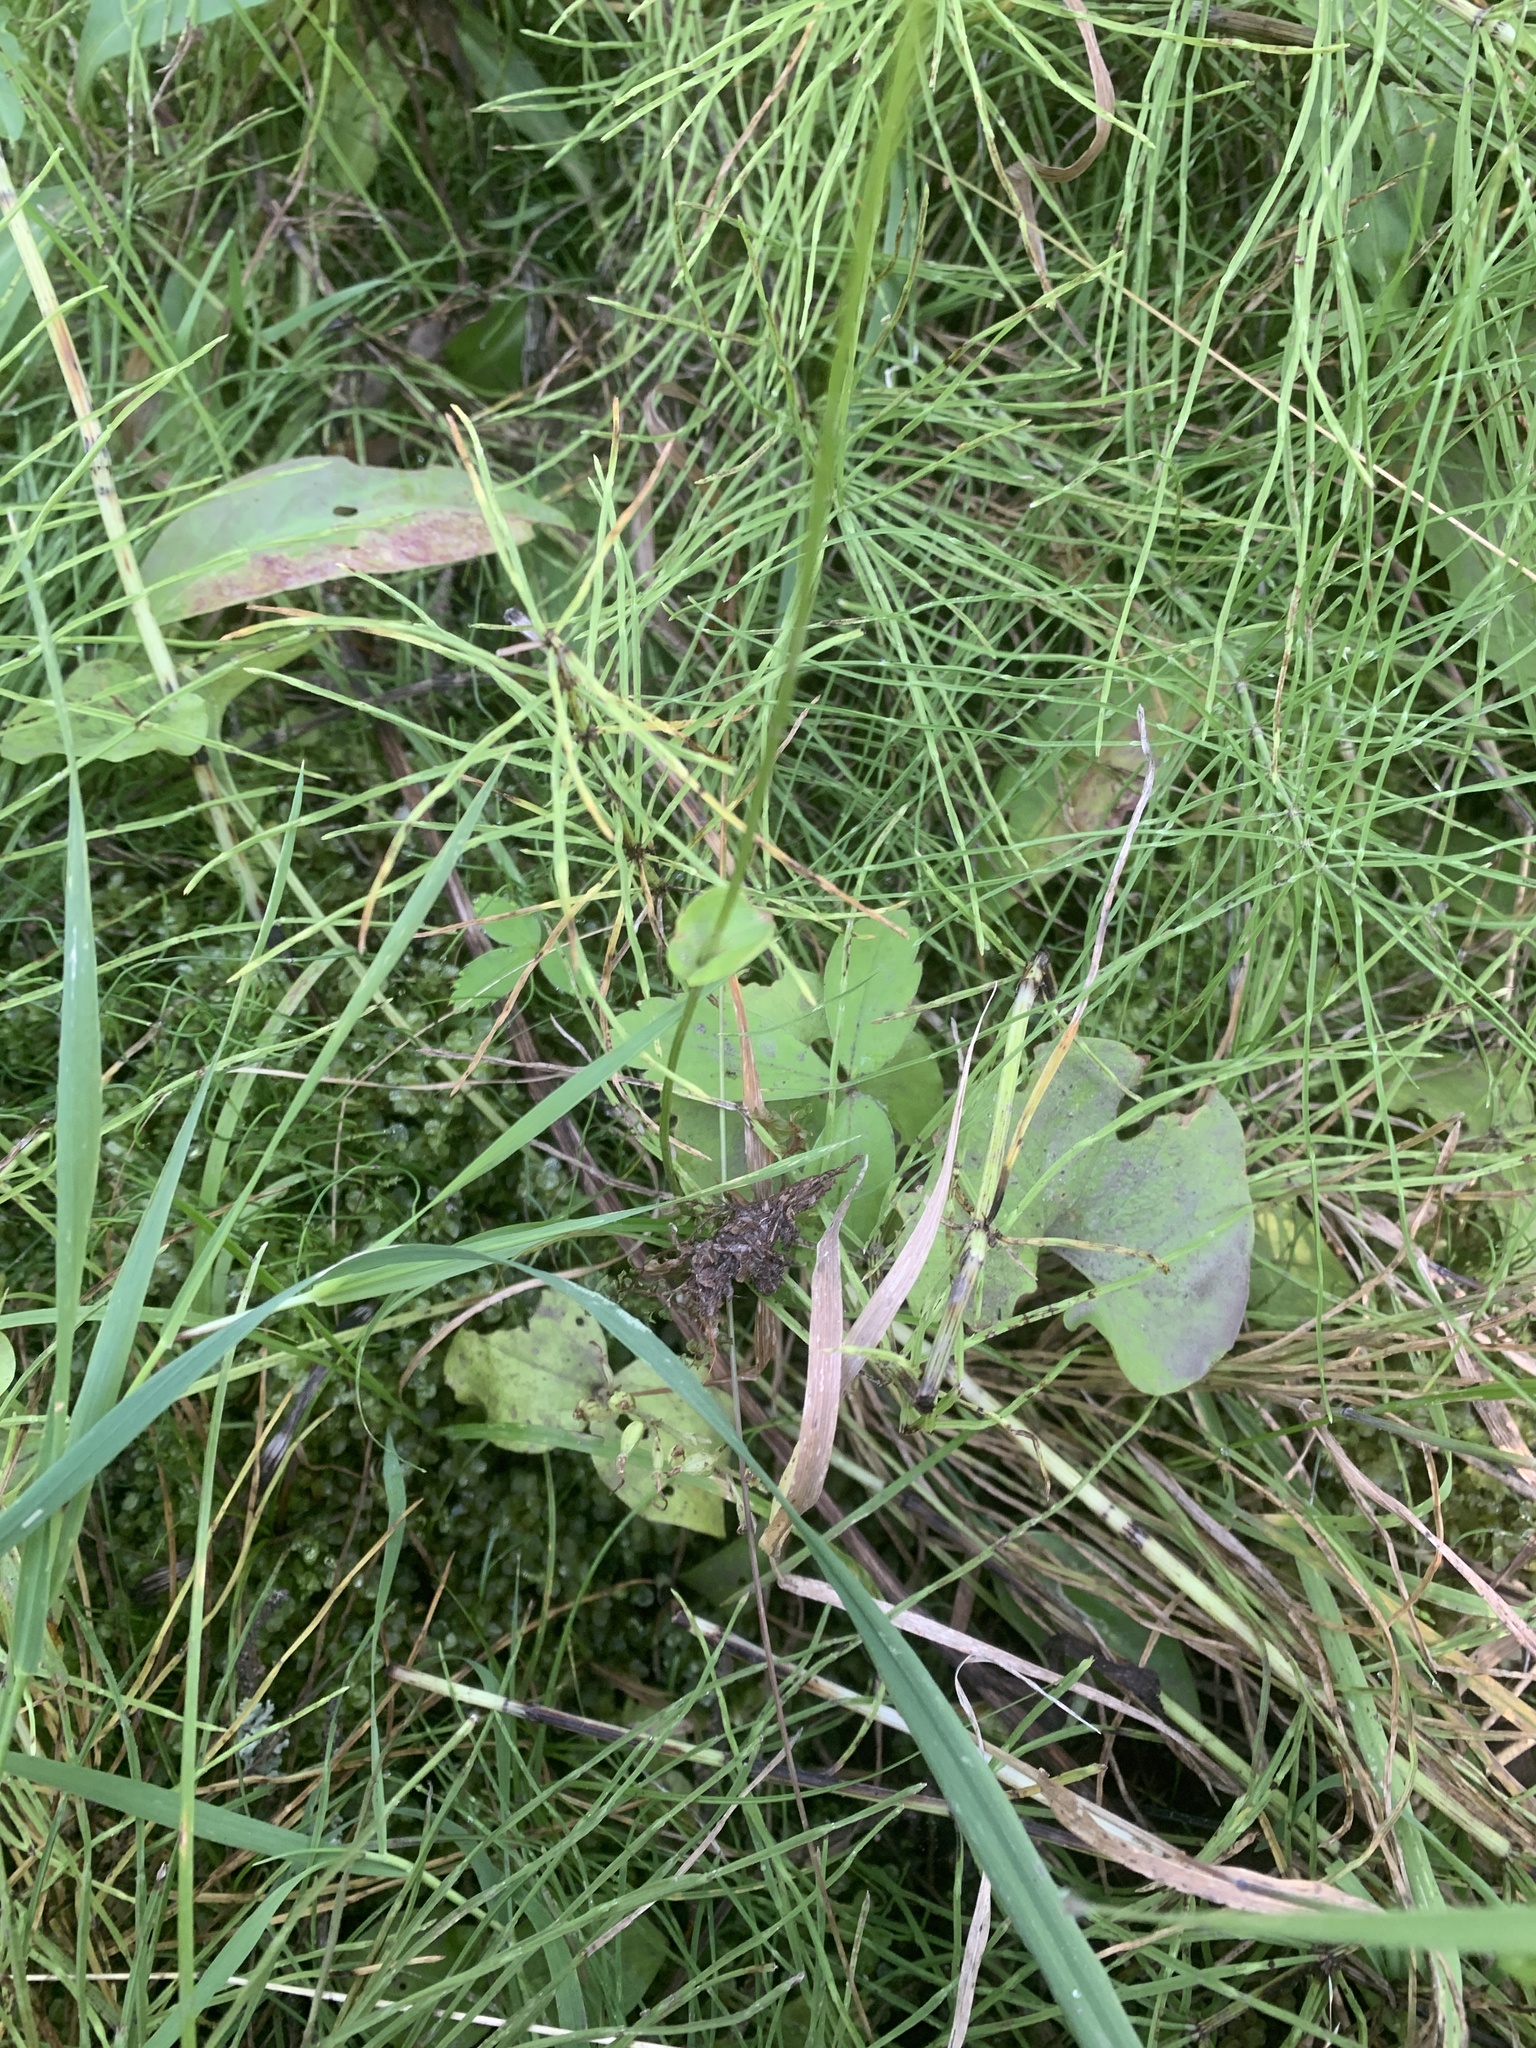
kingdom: Plantae
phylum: Tracheophyta
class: Magnoliopsida
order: Celastrales
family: Parnassiaceae
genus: Parnassia
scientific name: Parnassia fimbriata
